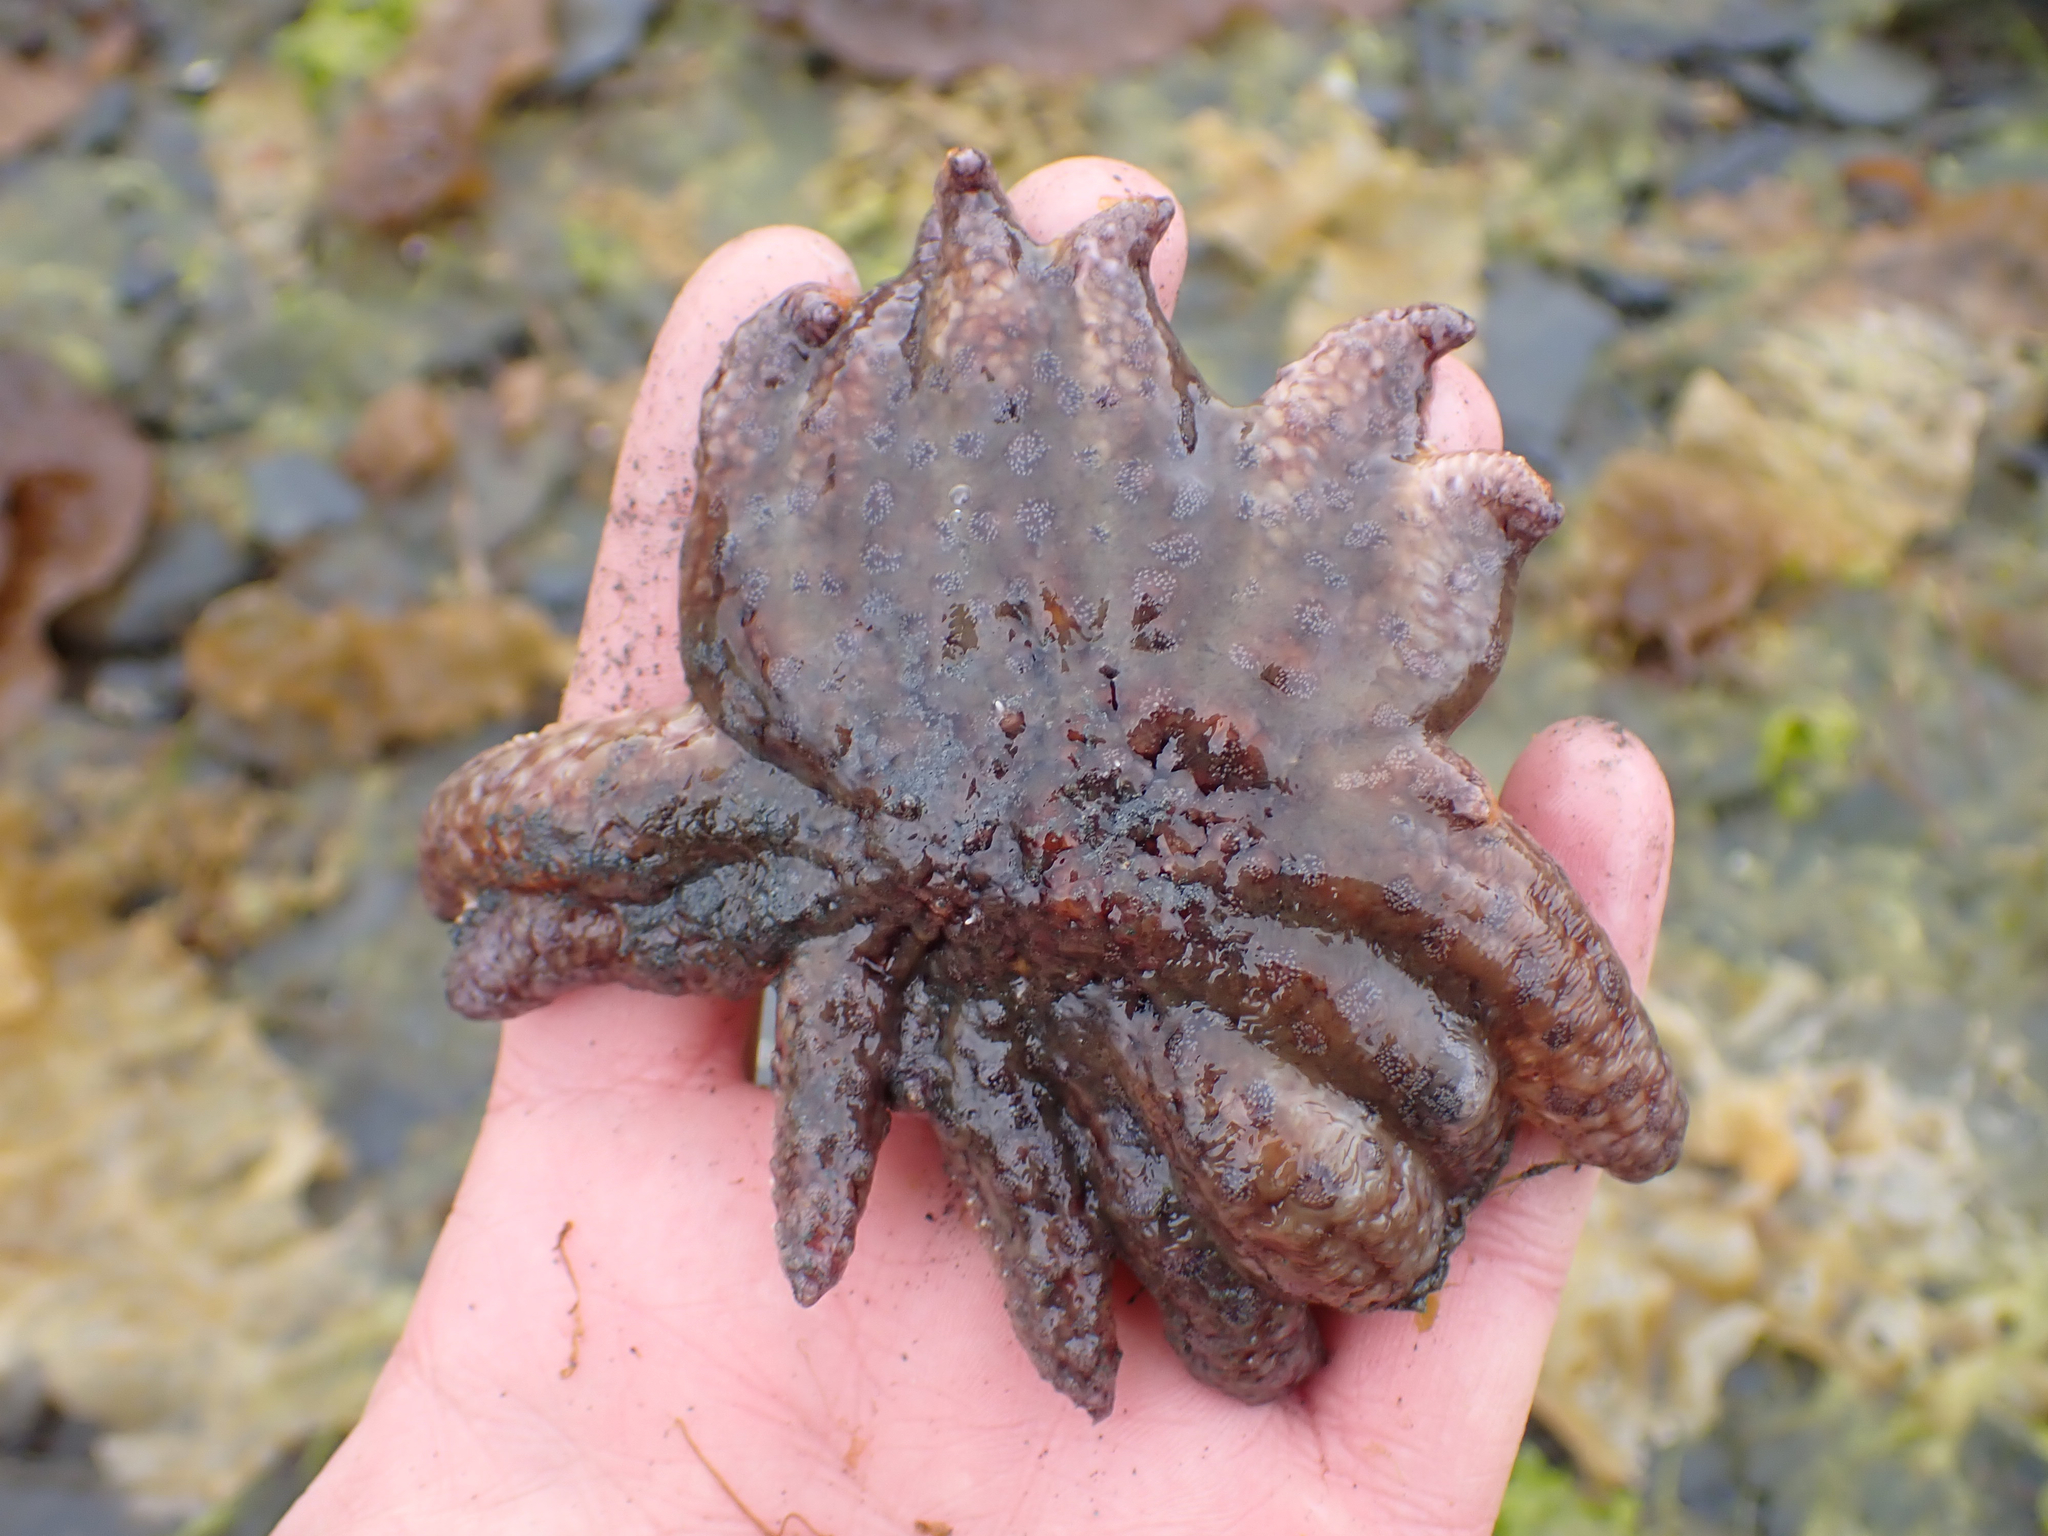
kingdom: Animalia
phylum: Echinodermata
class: Asteroidea
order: Forcipulatida
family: Asteriidae
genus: Pycnopodia
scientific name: Pycnopodia helianthoides
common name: Rag mop
